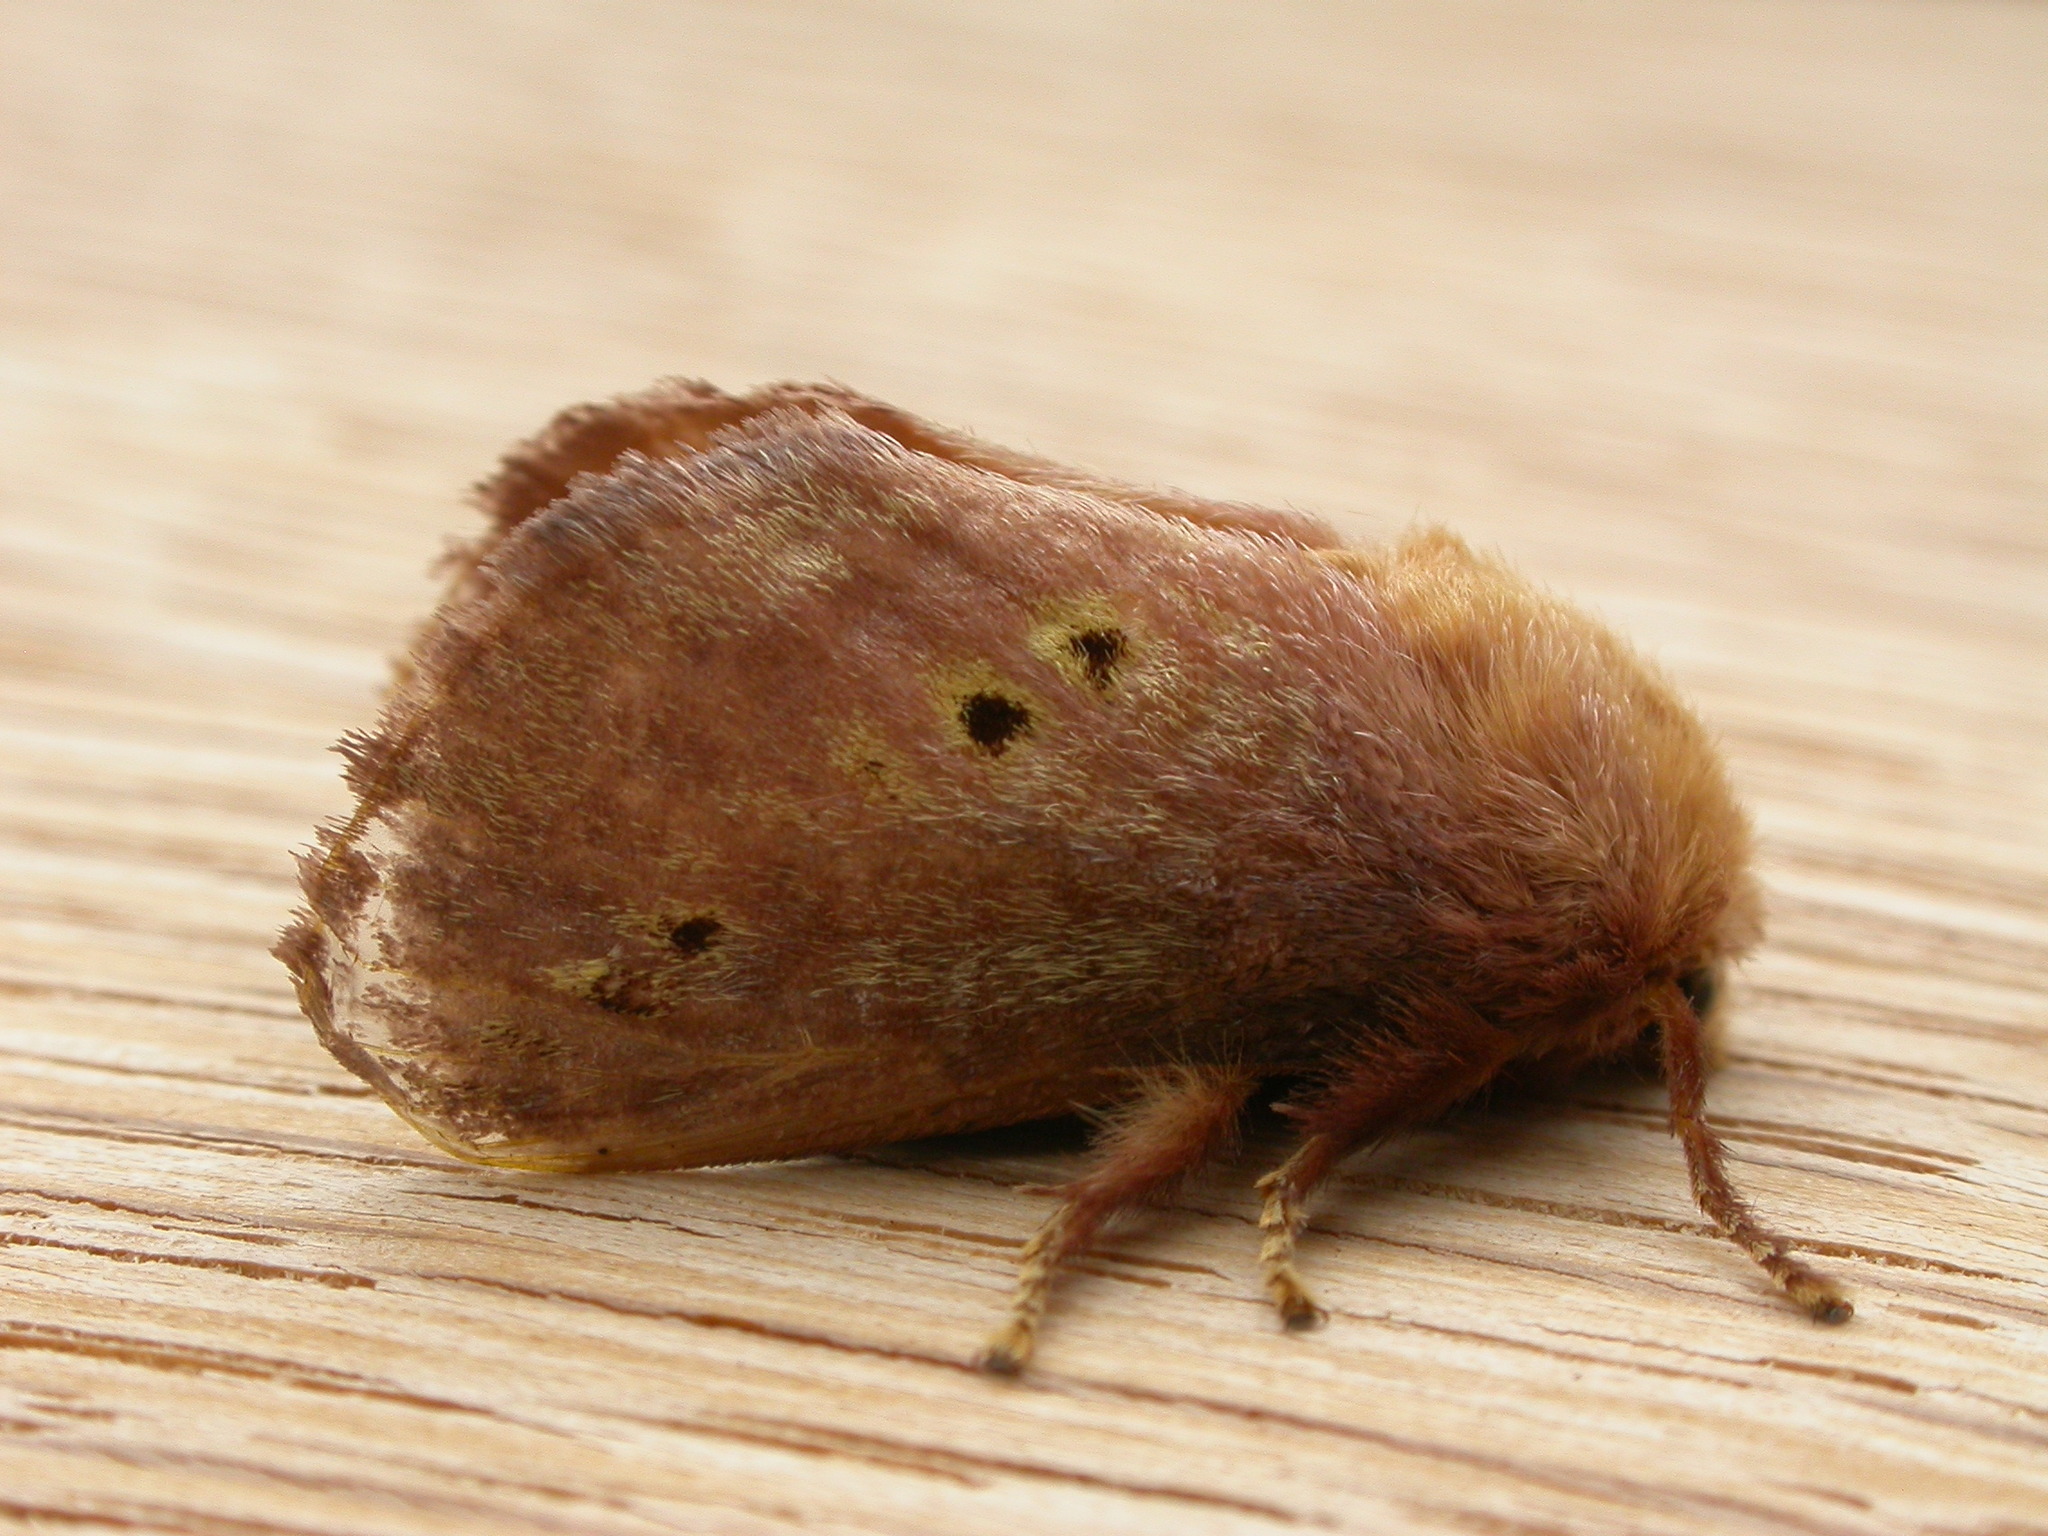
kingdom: Animalia
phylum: Arthropoda
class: Insecta
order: Lepidoptera
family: Limacodidae
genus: Doratifera
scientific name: Doratifera quadriguttata
